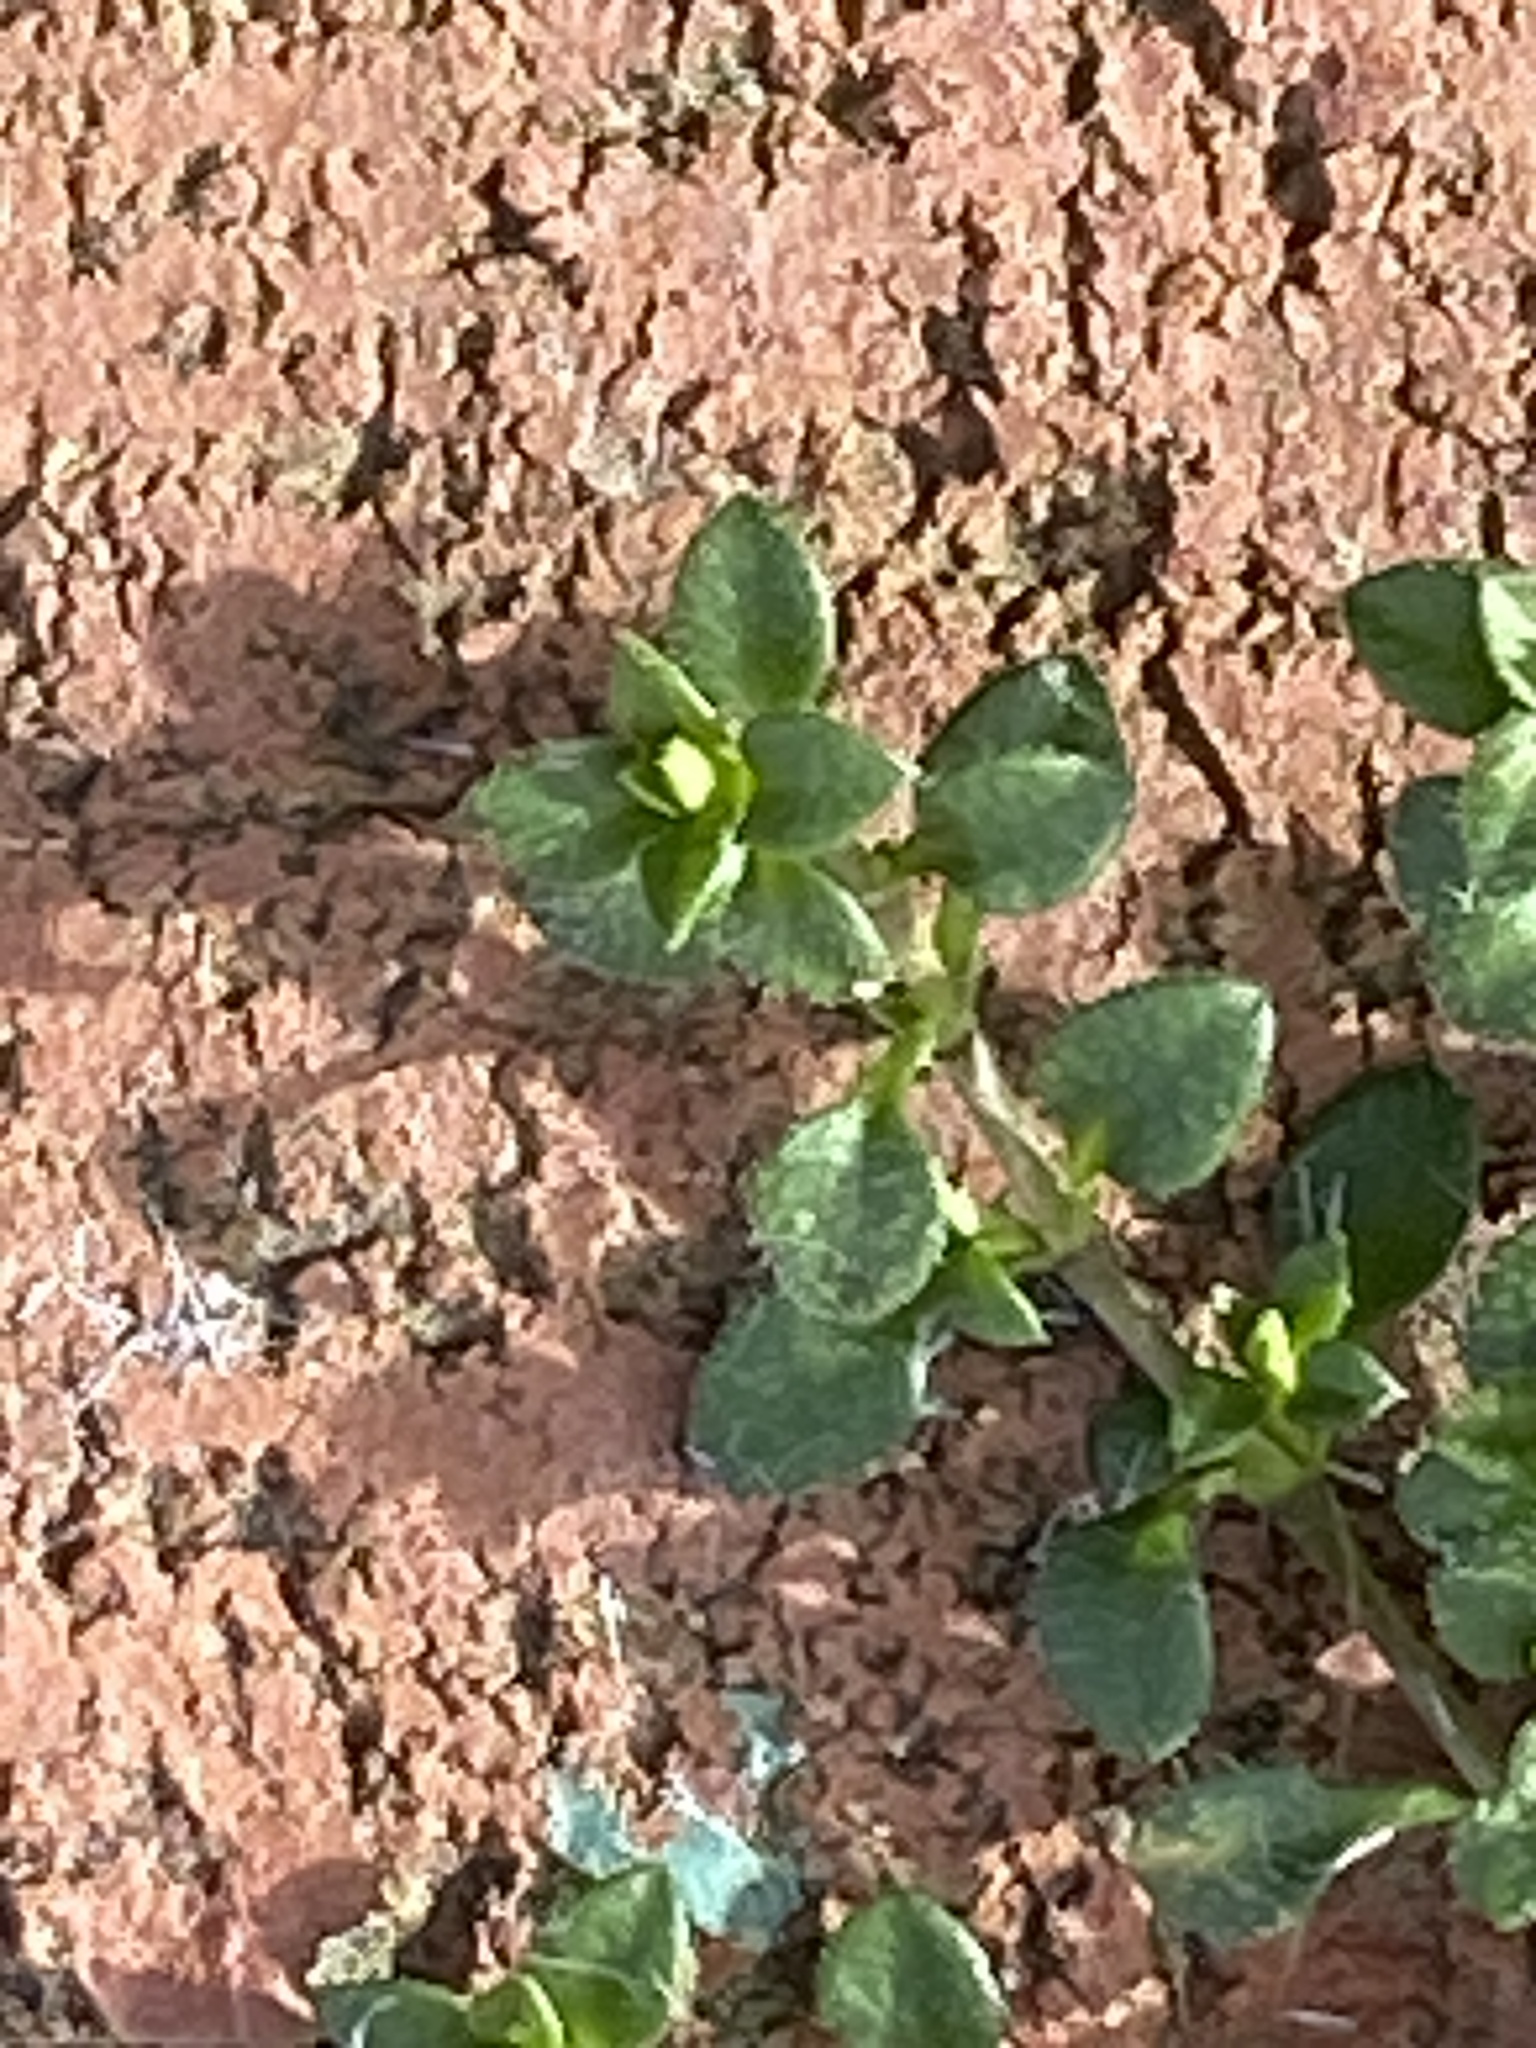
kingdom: Plantae
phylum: Tracheophyta
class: Magnoliopsida
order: Caryophyllales
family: Caryophyllaceae
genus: Stellaria
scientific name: Stellaria media
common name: Common chickweed
